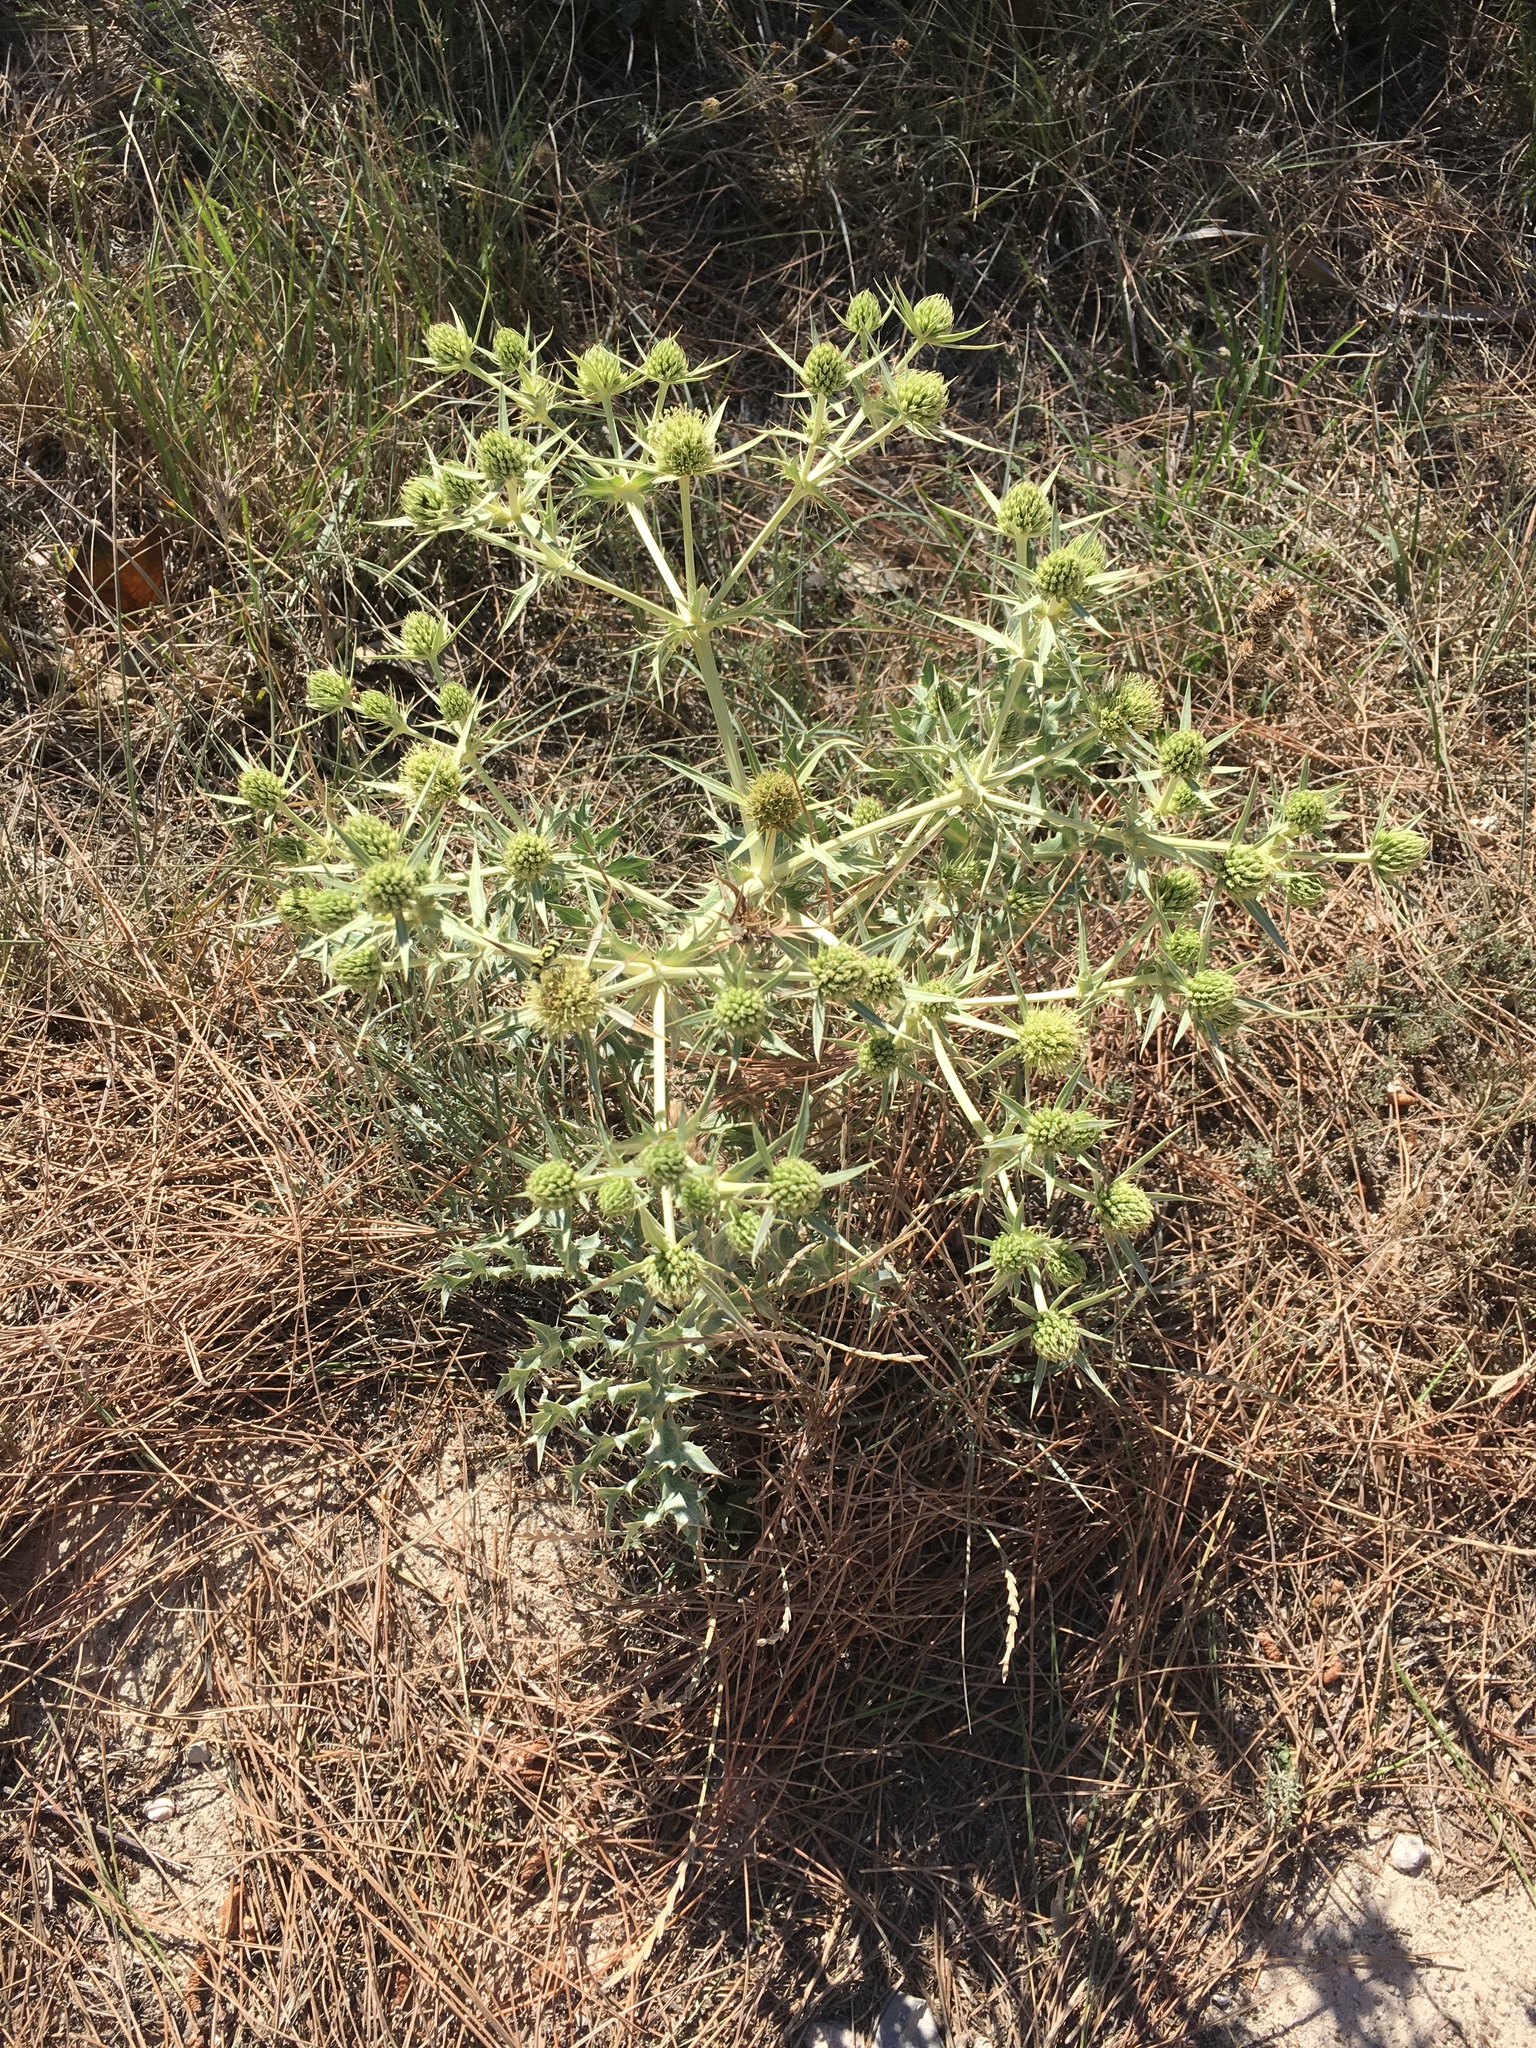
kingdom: Plantae
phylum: Tracheophyta
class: Magnoliopsida
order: Apiales
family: Apiaceae
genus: Eryngium
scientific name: Eryngium campestre
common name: Field eryngo
